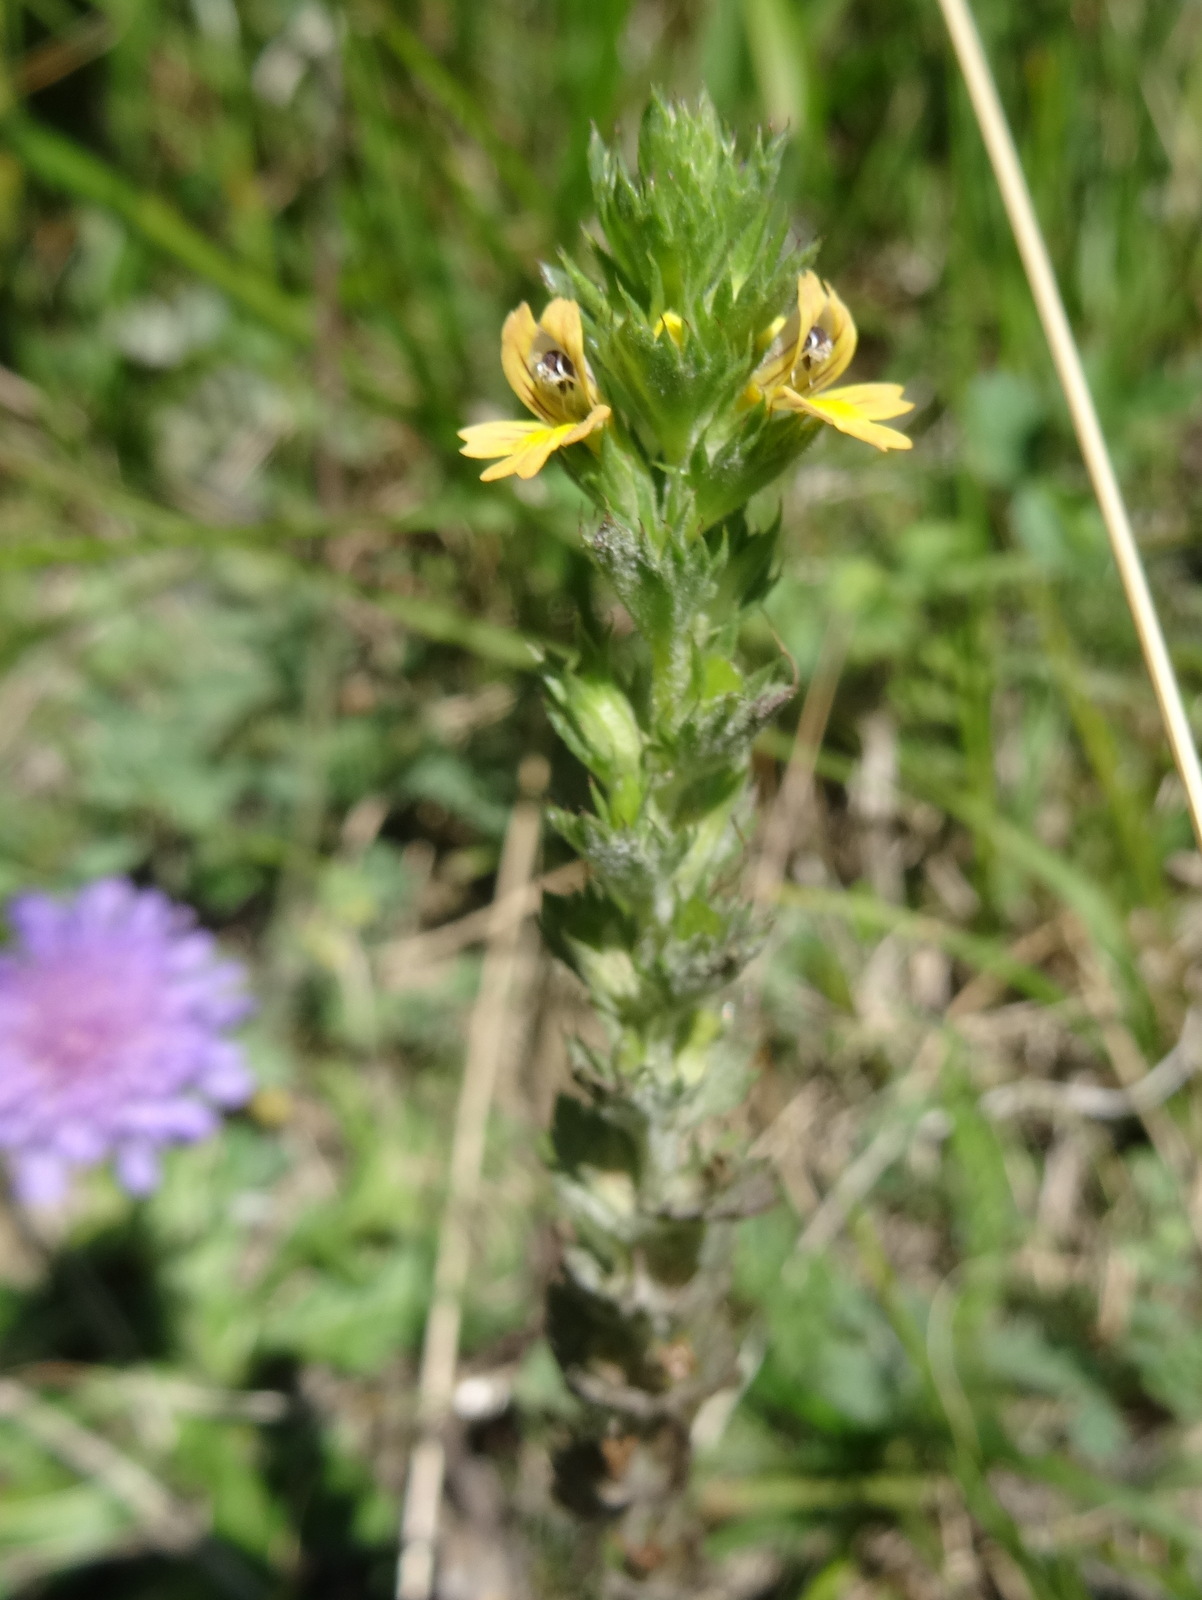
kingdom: Plantae
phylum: Tracheophyta
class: Magnoliopsida
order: Lamiales
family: Orobanchaceae
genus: Euphrasia
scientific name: Euphrasia minima
